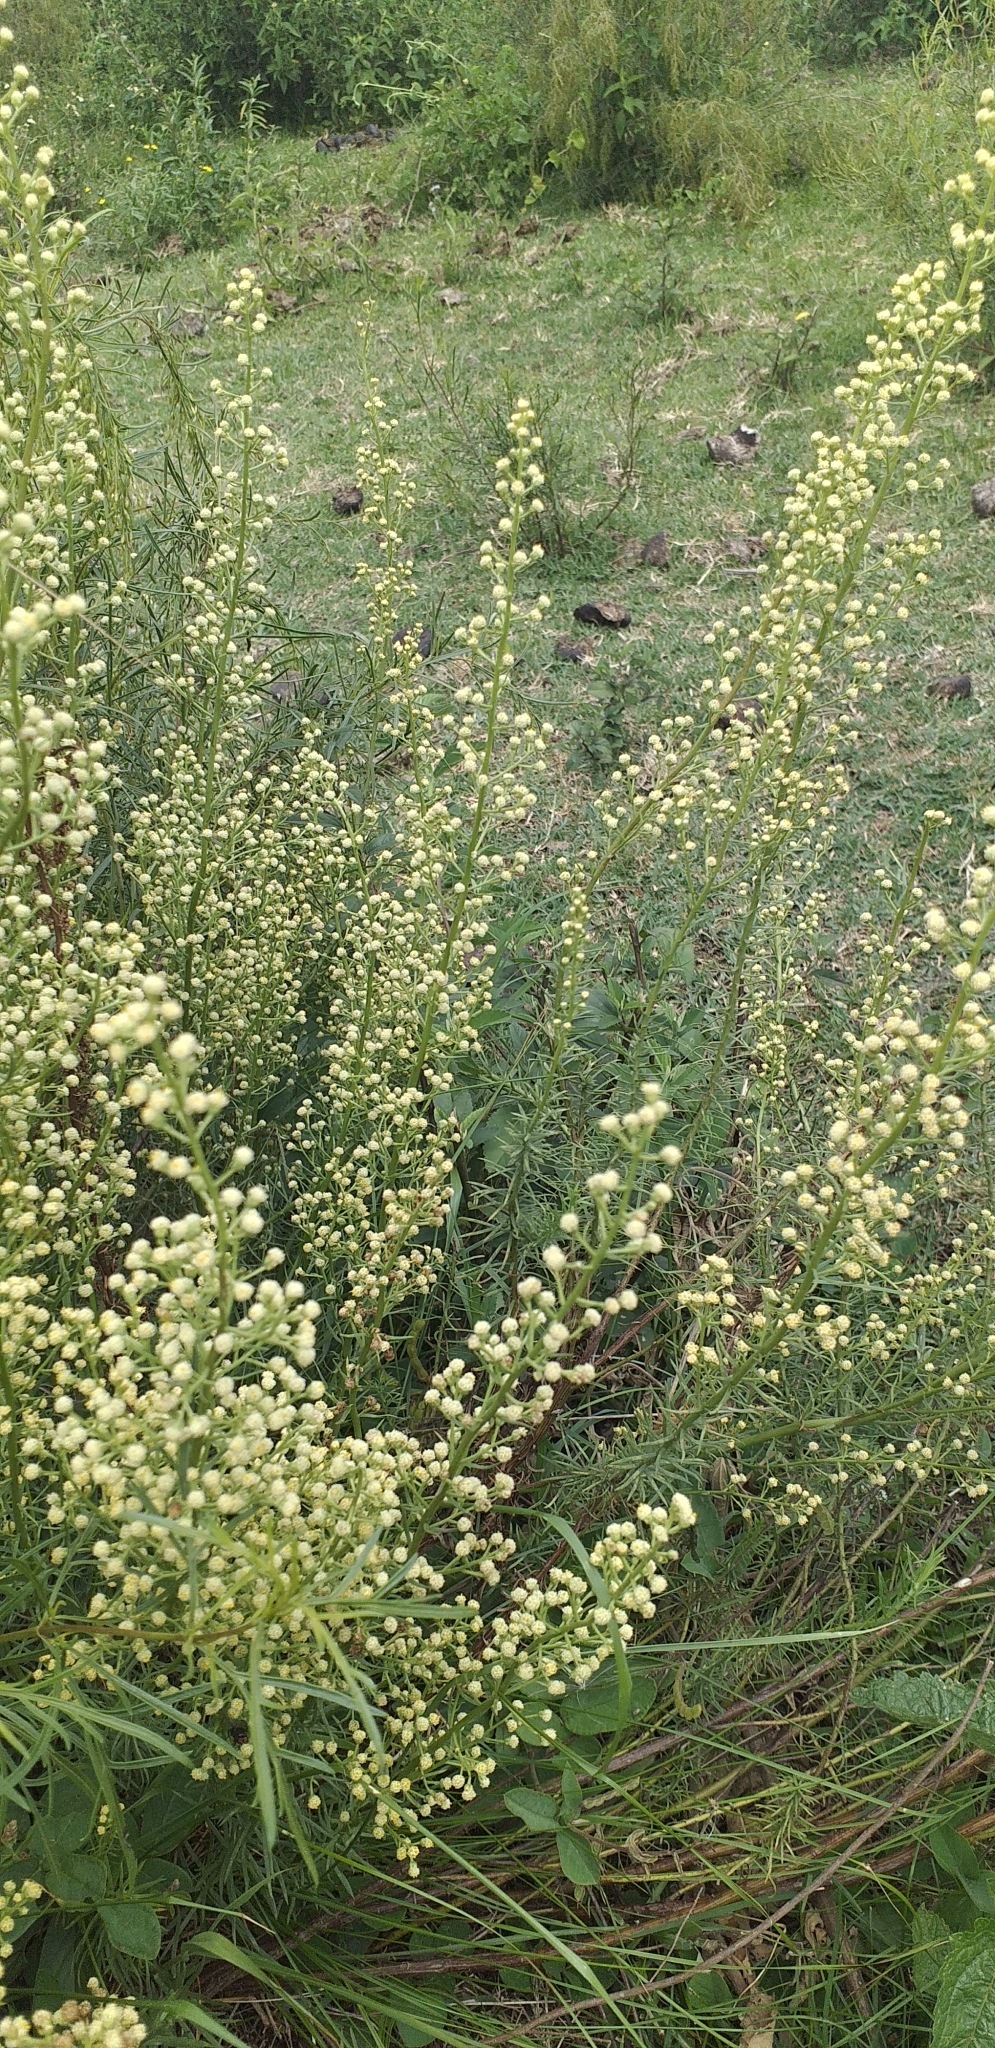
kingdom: Plantae
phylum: Tracheophyta
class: Magnoliopsida
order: Asterales
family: Asteraceae
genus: Baccharis
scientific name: Baccharis coridifolia
